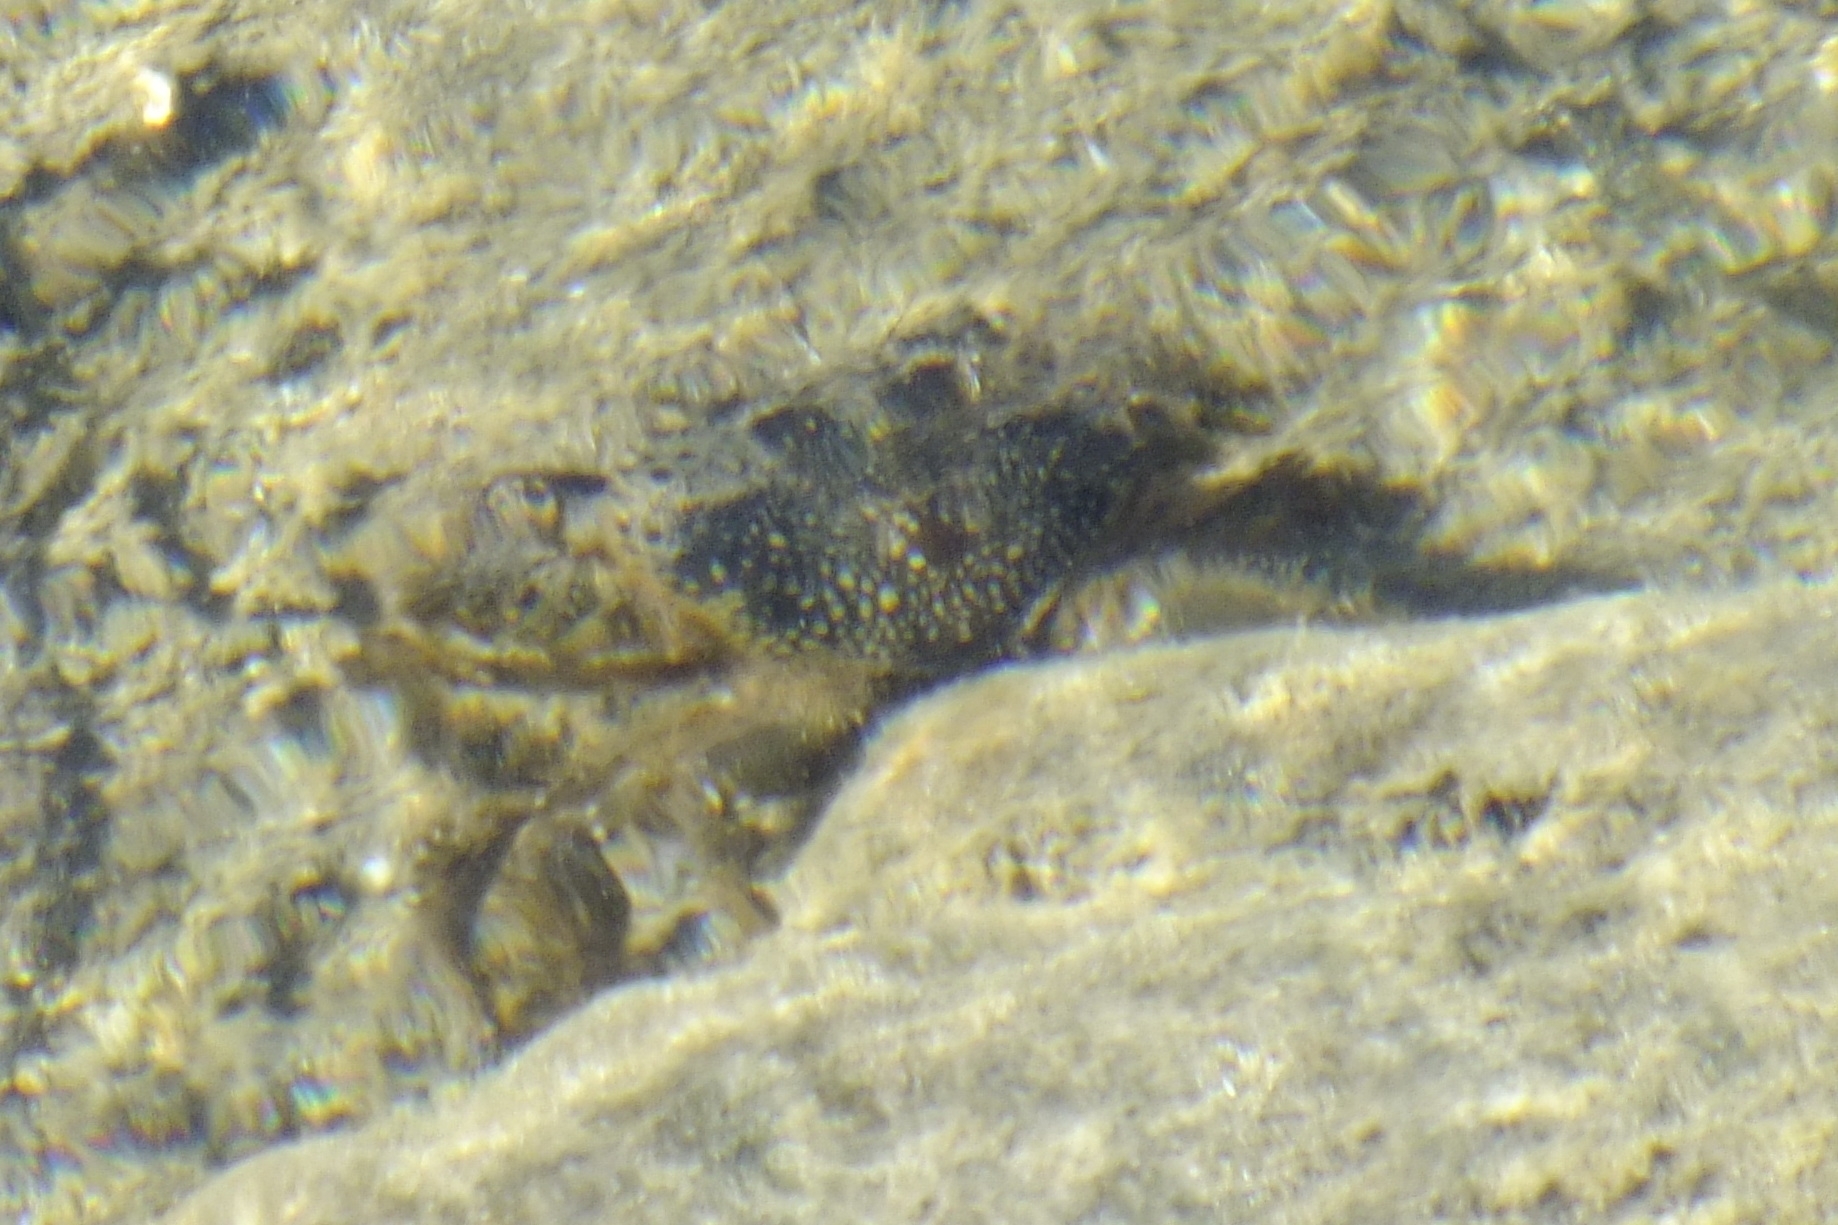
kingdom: Animalia
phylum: Arthropoda
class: Malacostraca
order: Decapoda
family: Eriphiidae
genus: Eriphia
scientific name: Eriphia verrucosa
